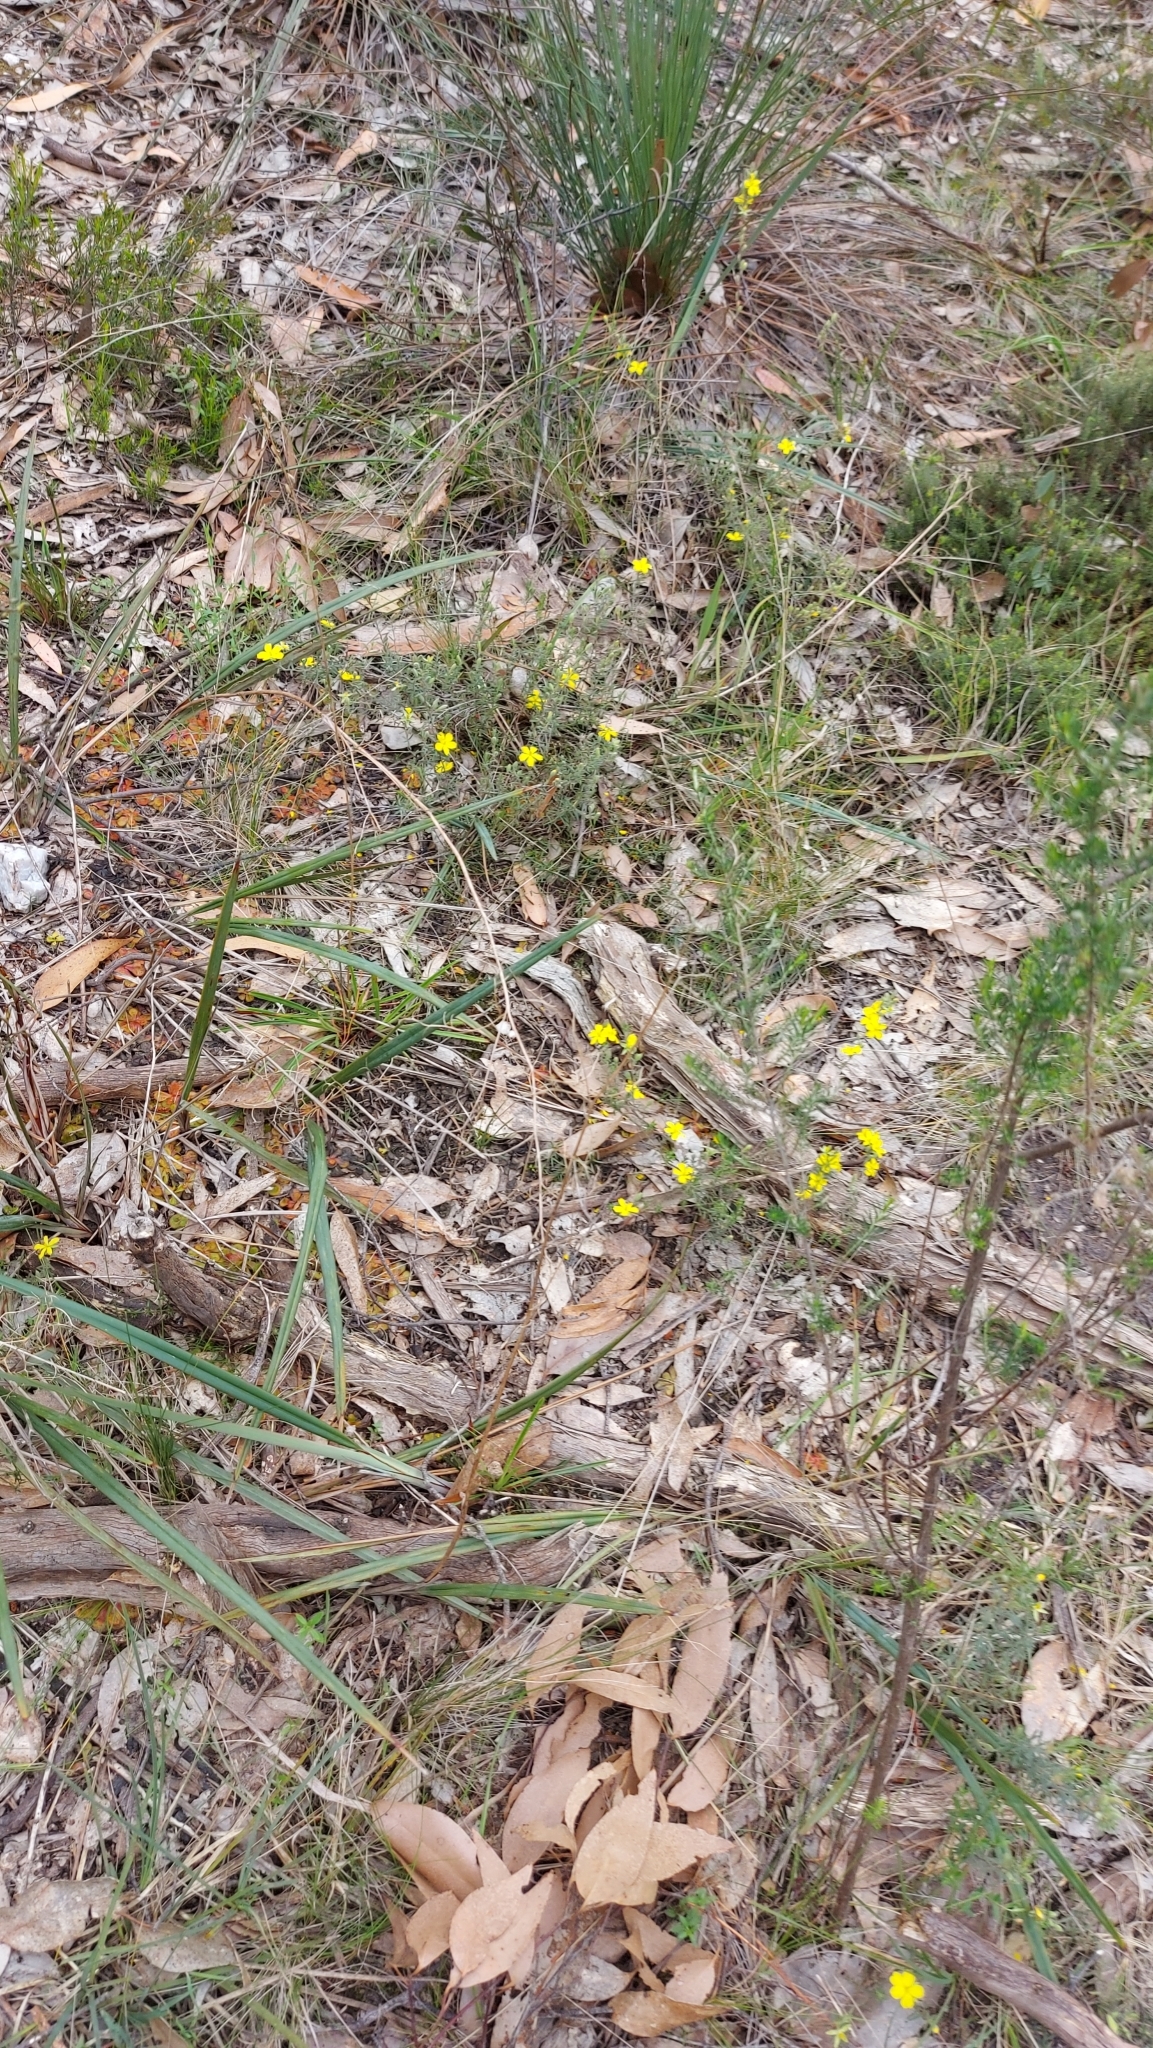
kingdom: Plantae
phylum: Tracheophyta
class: Magnoliopsida
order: Dilleniales
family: Dilleniaceae
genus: Hibbertia
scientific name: Hibbertia riparia
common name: Erect guinea-flower
